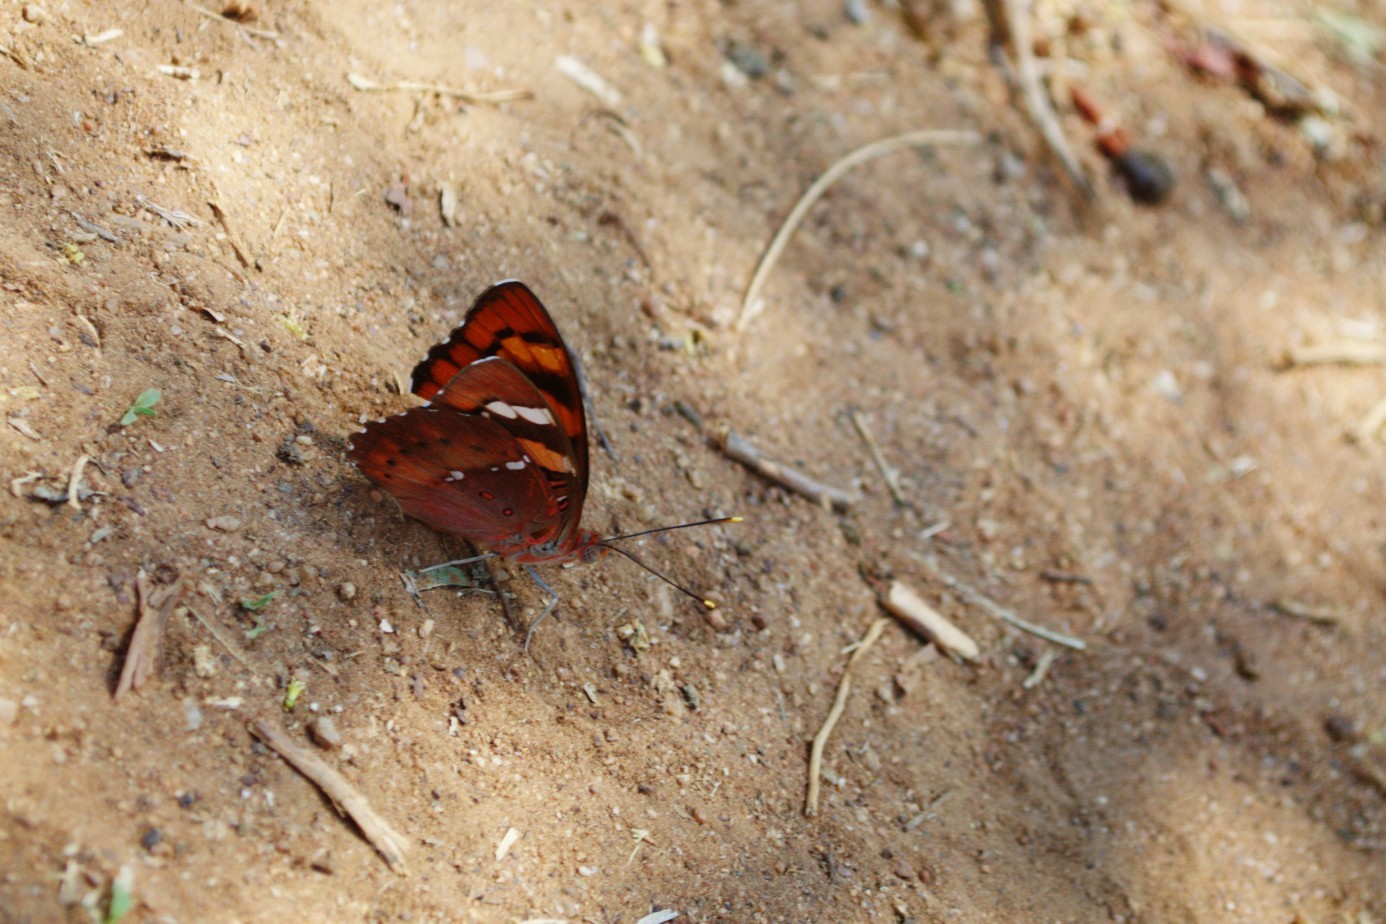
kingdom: Animalia
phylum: Arthropoda
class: Insecta
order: Lepidoptera
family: Nymphalidae
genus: Euthalia
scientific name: Euthalia nais
